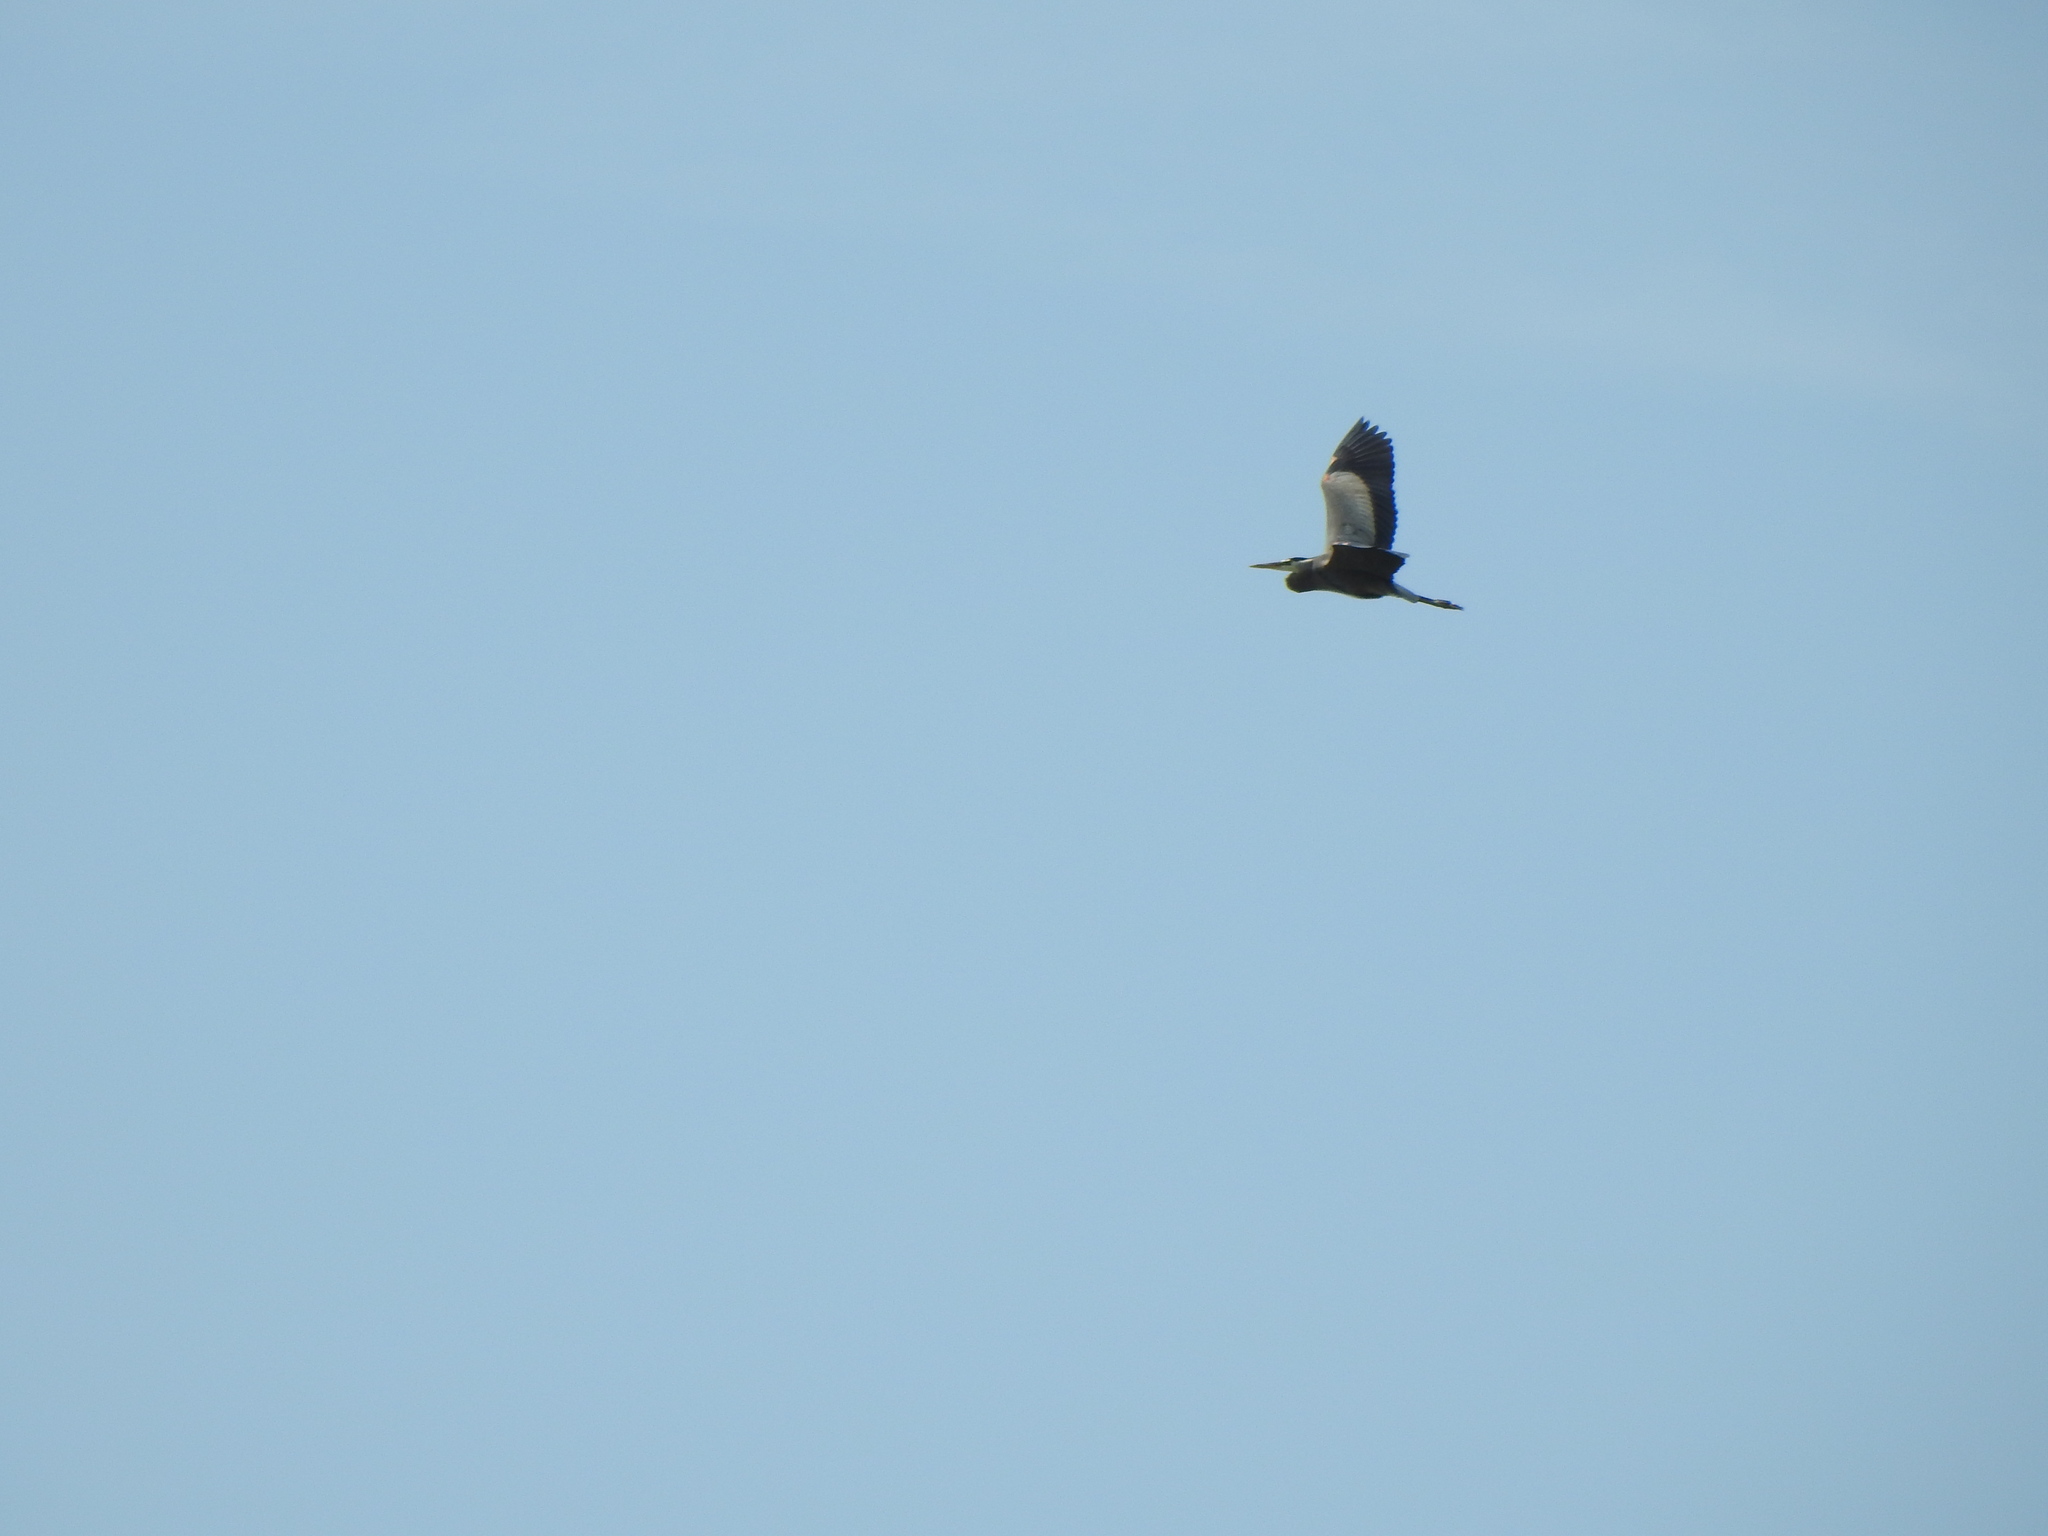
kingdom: Animalia
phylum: Chordata
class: Aves
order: Pelecaniformes
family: Ardeidae
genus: Ardea
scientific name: Ardea herodias
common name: Great blue heron
